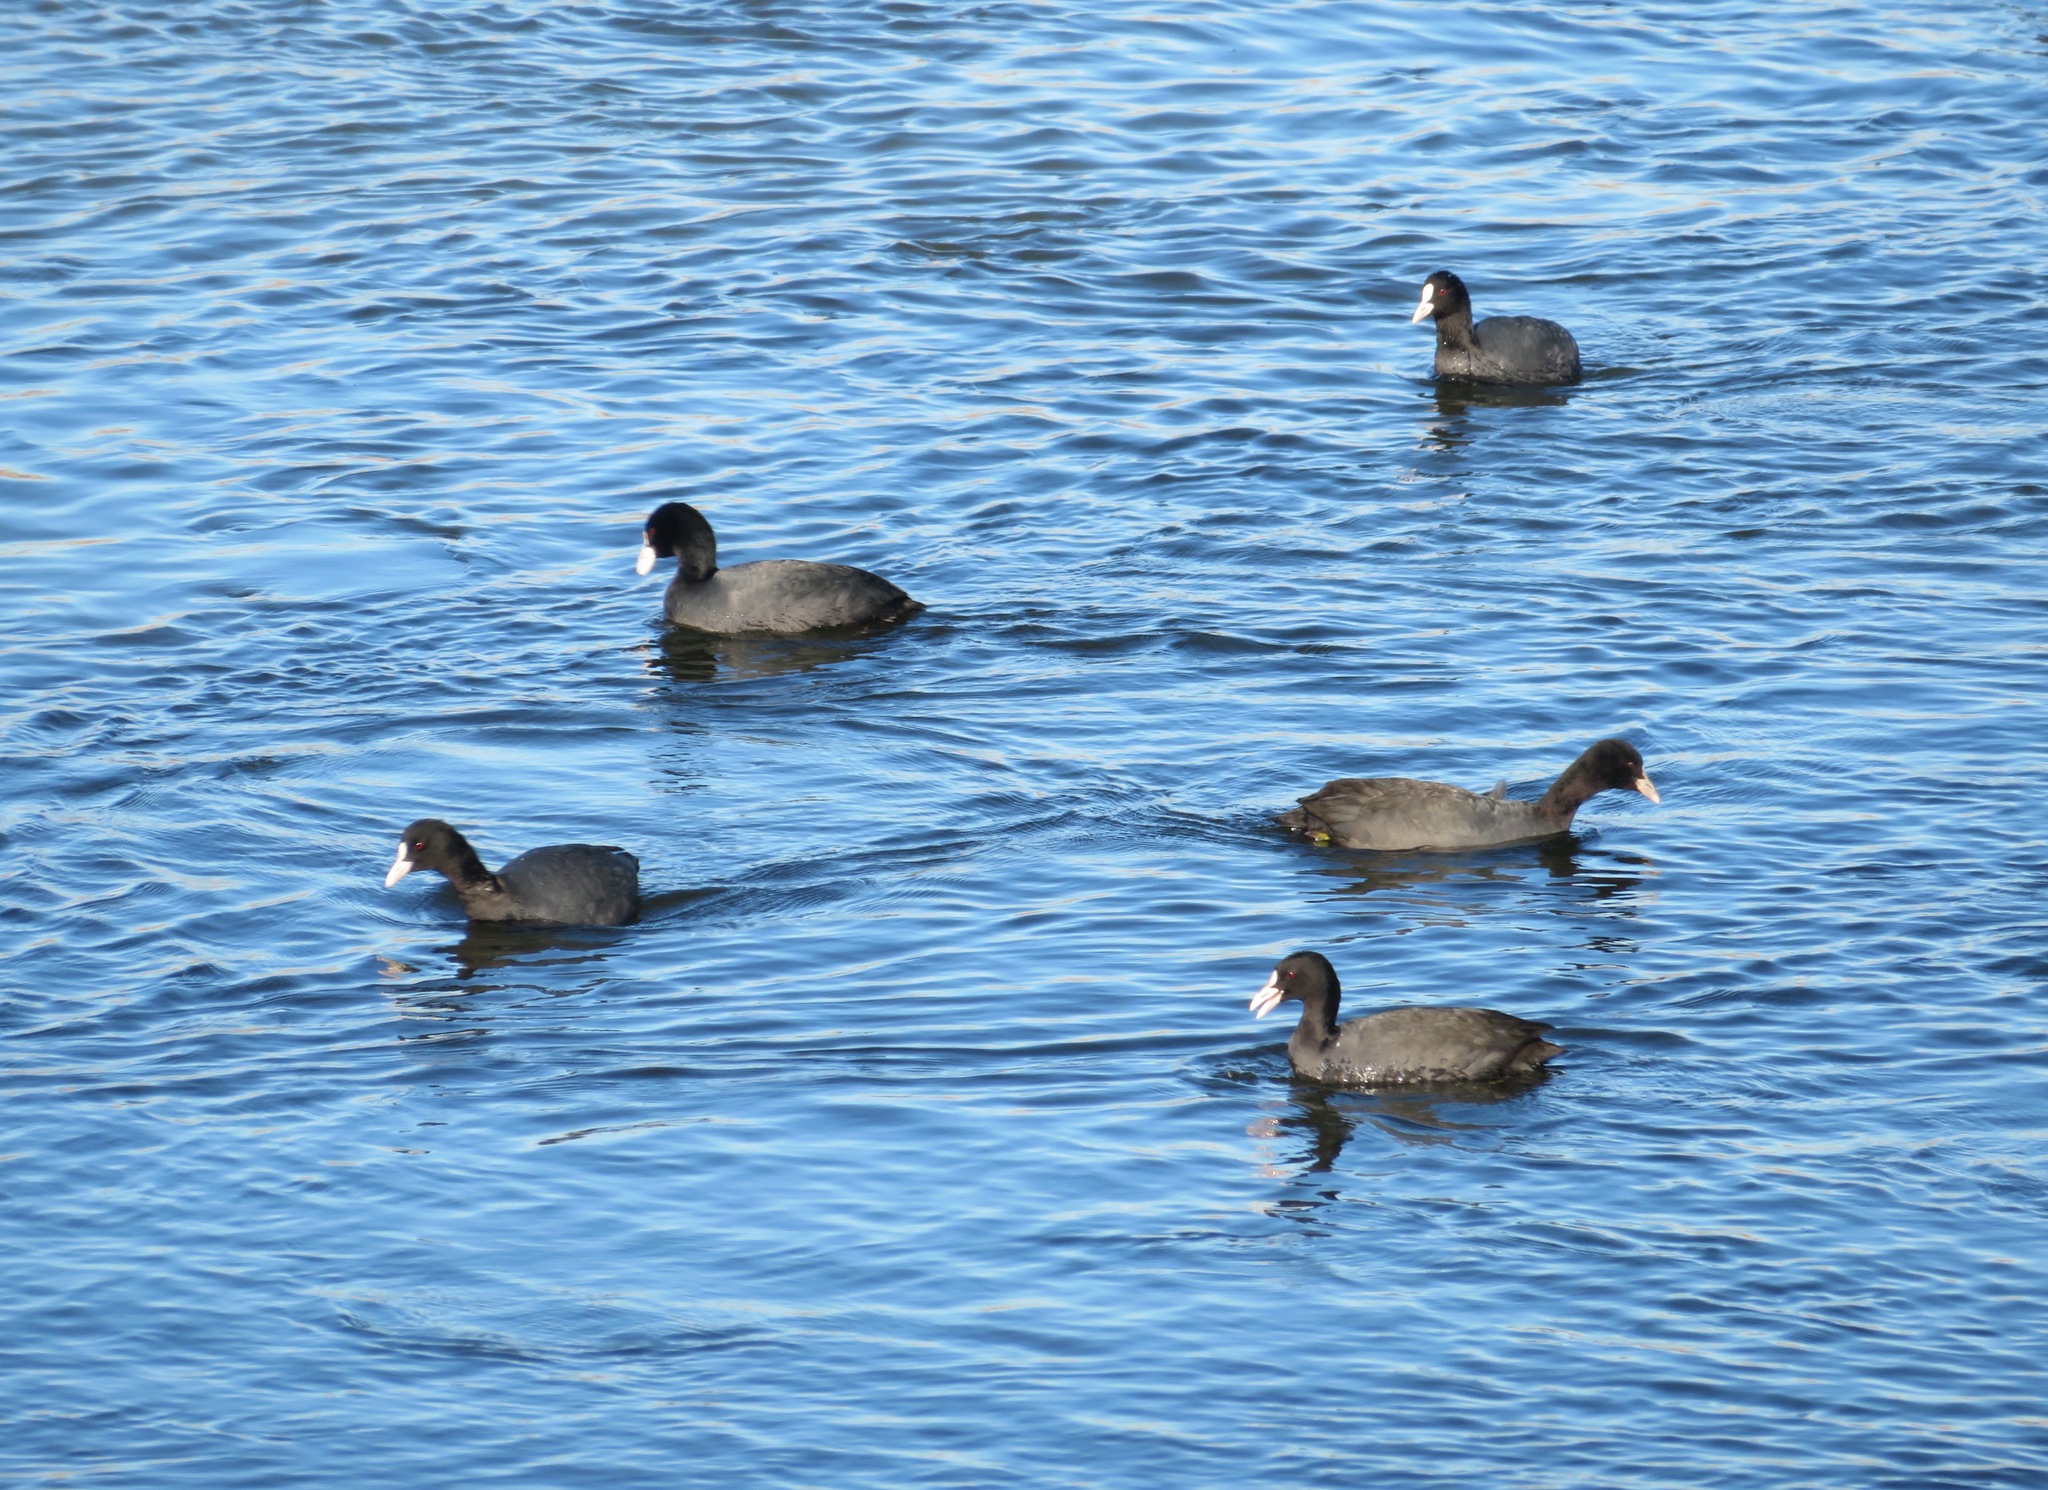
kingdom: Animalia
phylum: Chordata
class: Aves
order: Gruiformes
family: Rallidae
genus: Fulica
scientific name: Fulica atra
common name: Eurasian coot
